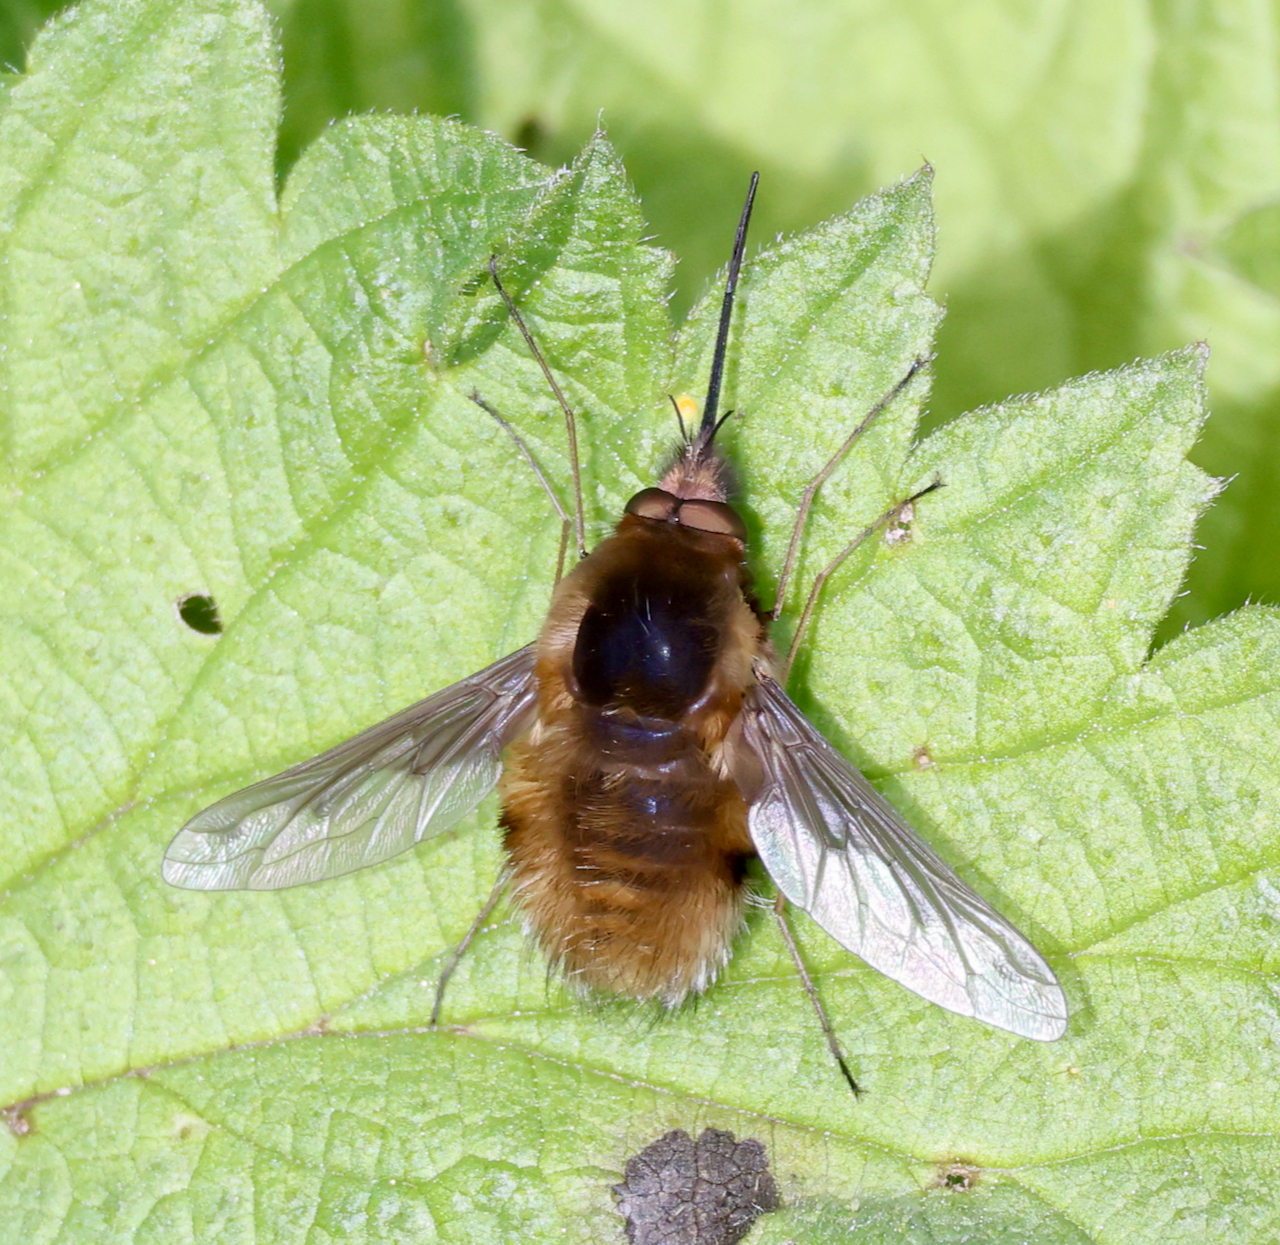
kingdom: Animalia
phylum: Arthropoda
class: Insecta
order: Diptera
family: Bombyliidae
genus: Bombylius
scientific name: Bombylius major
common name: Bee fly
